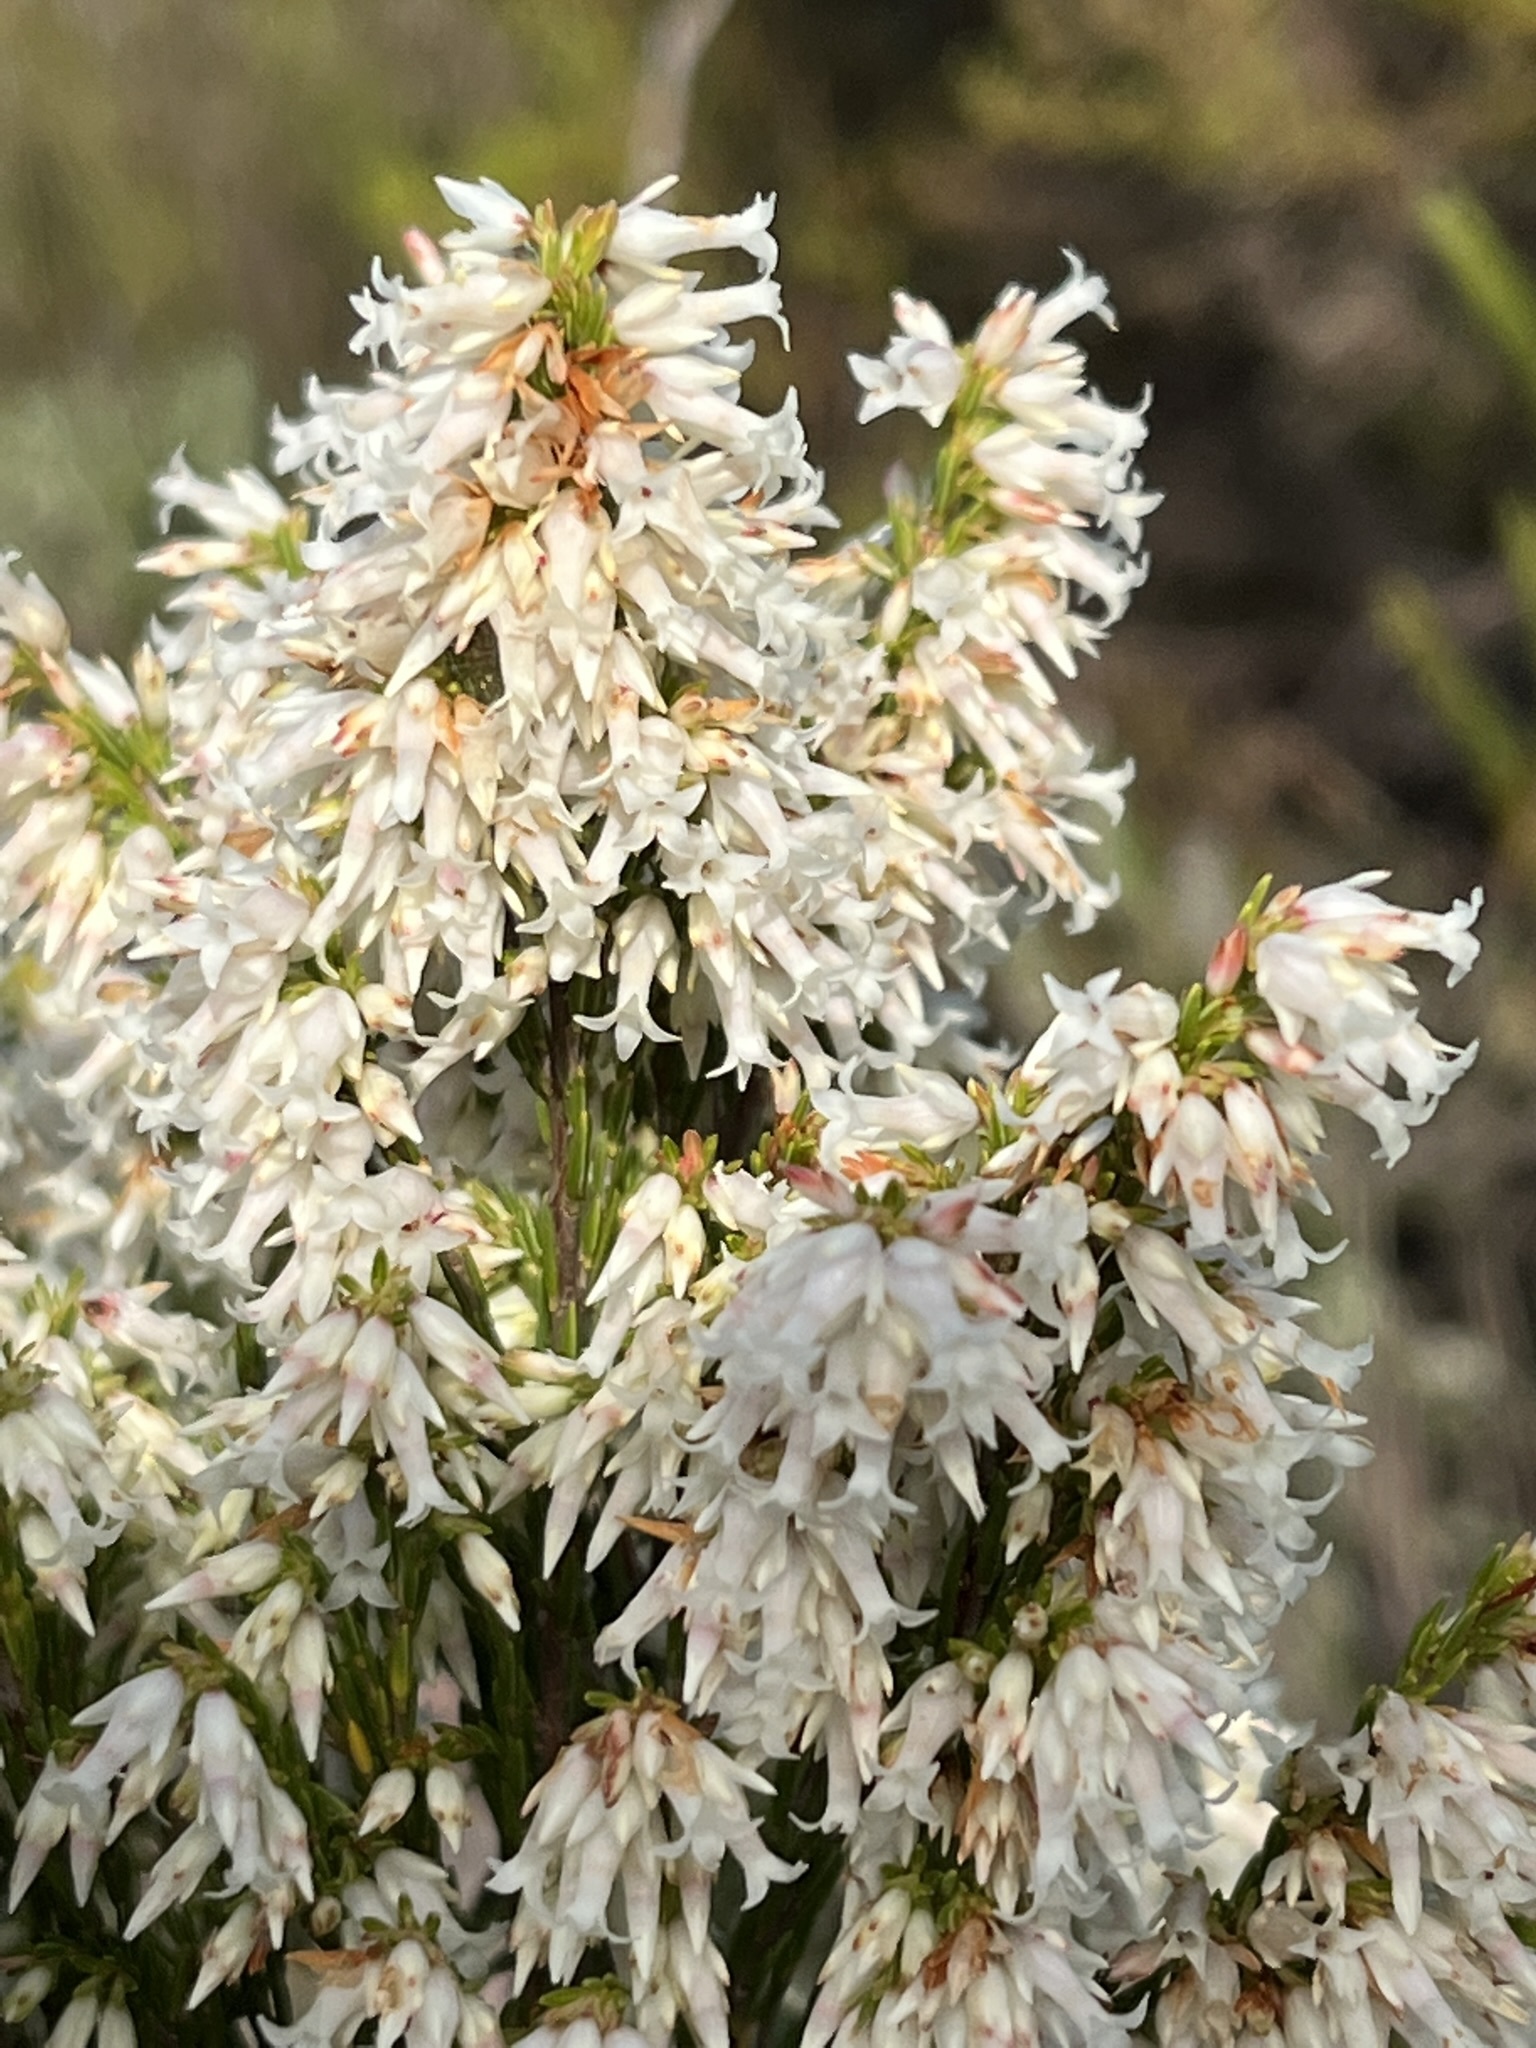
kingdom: Plantae
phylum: Tracheophyta
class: Magnoliopsida
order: Ericales
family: Ericaceae
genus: Erica
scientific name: Erica lutea
